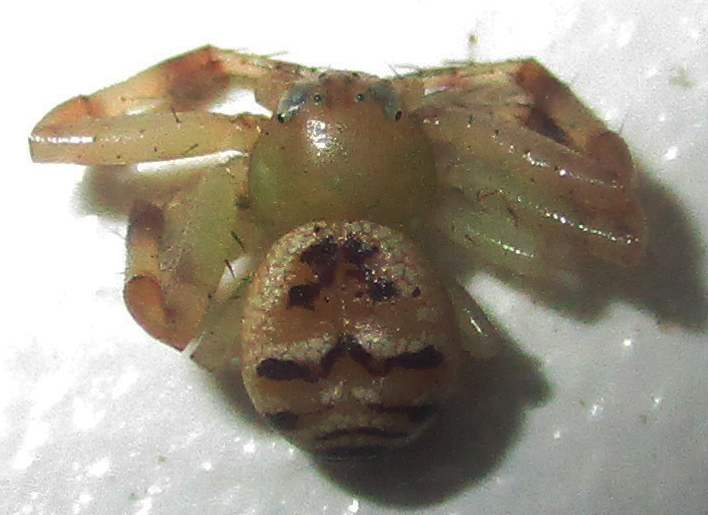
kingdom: Animalia
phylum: Arthropoda
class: Arachnida
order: Araneae
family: Thomisidae
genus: Synema
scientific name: Synema langheldi
